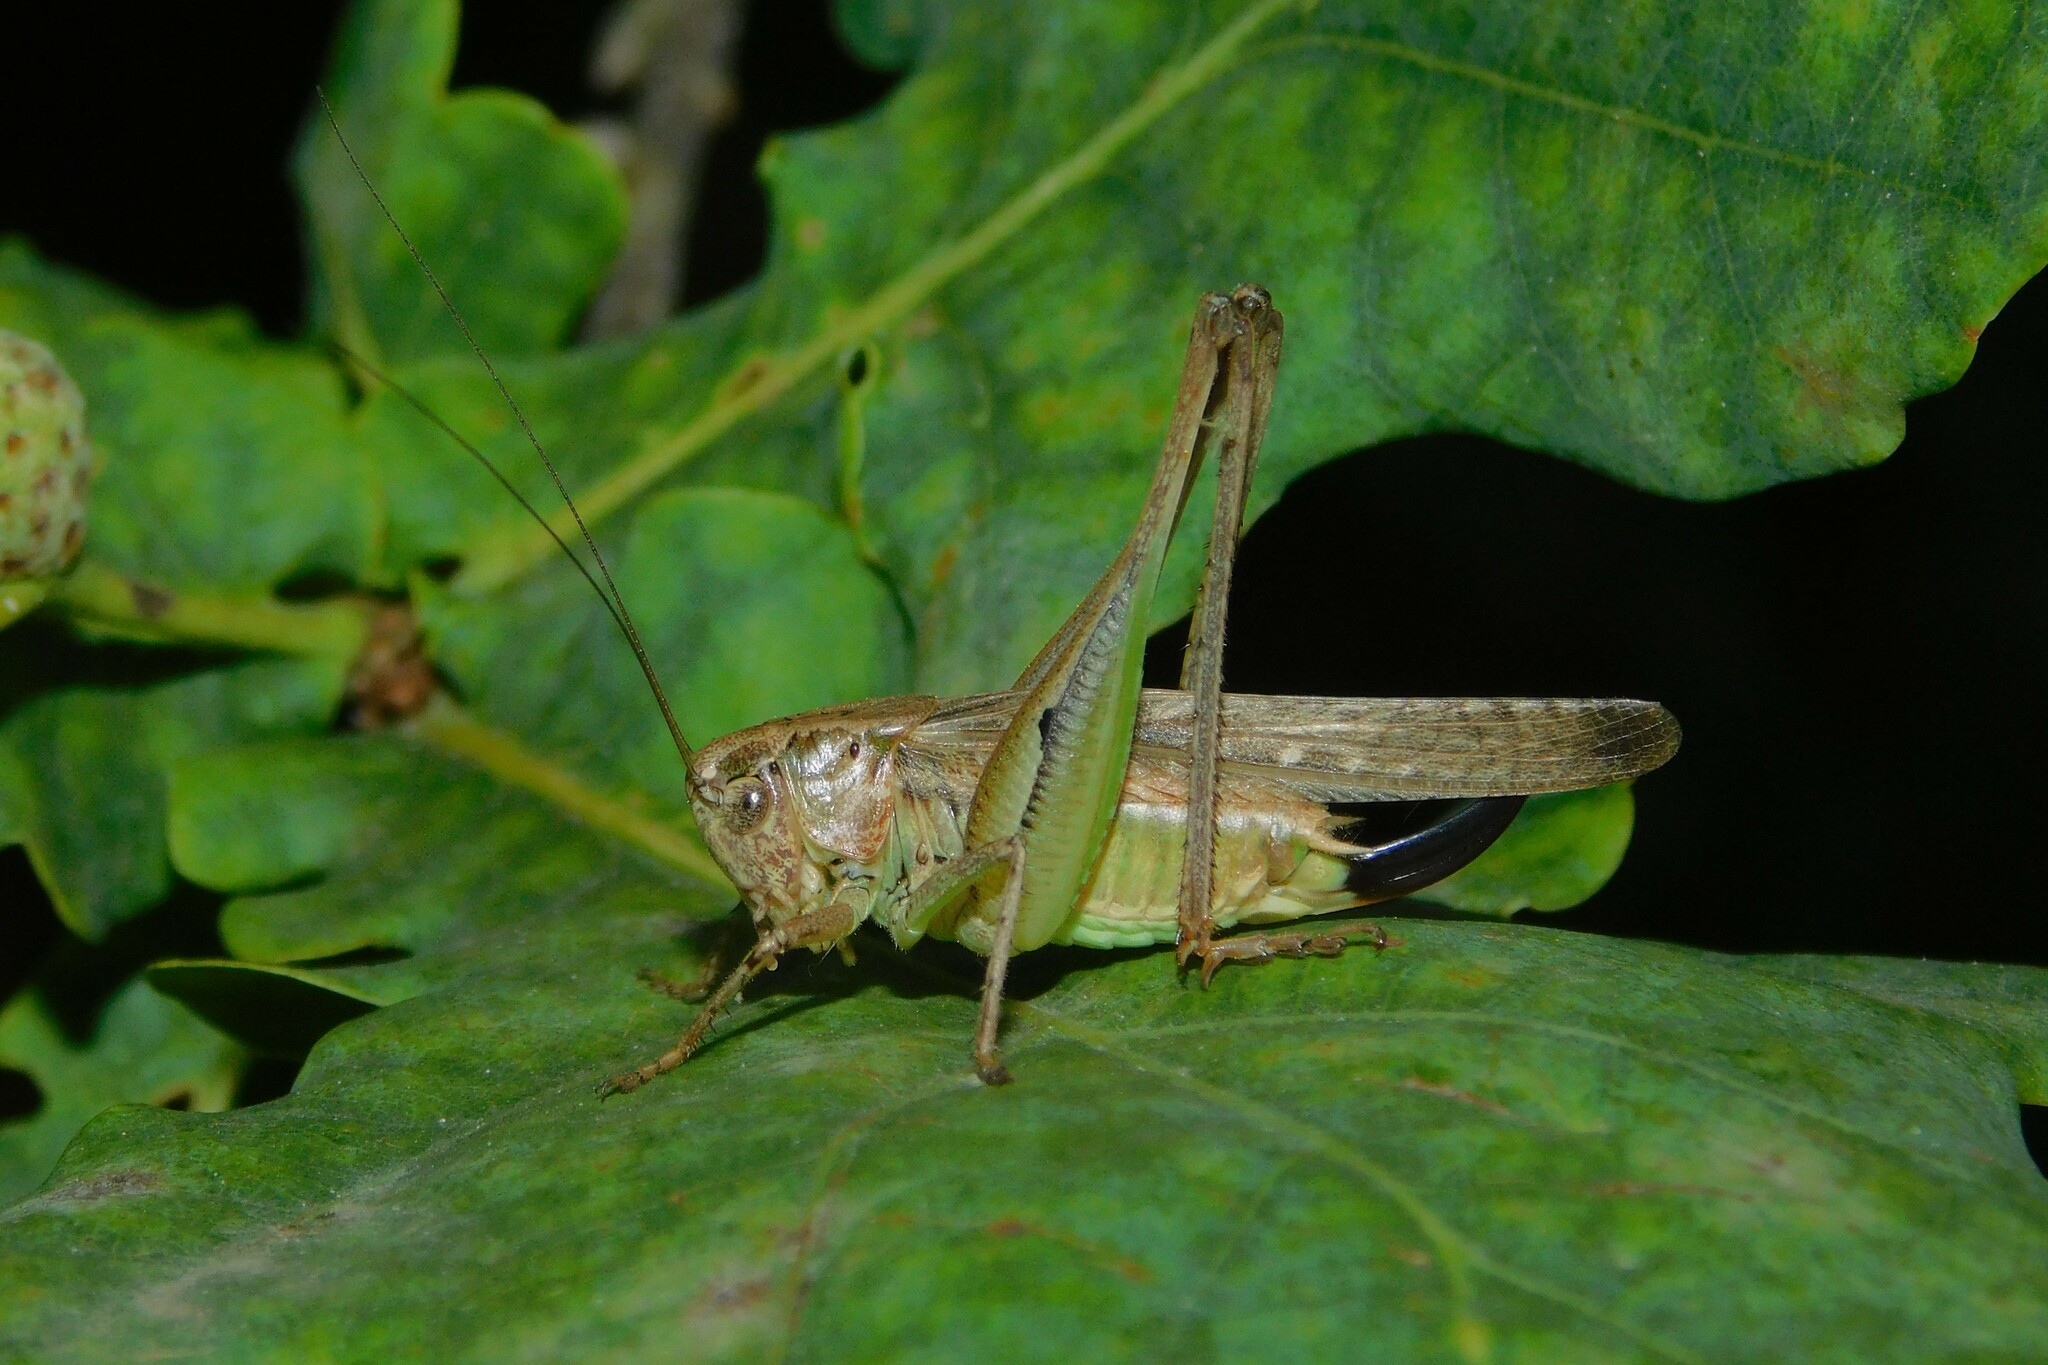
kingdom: Animalia
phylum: Arthropoda
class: Insecta
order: Orthoptera
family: Tettigoniidae
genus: Platycleis
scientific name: Platycleis albopunctata
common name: Grey bush-cricket
